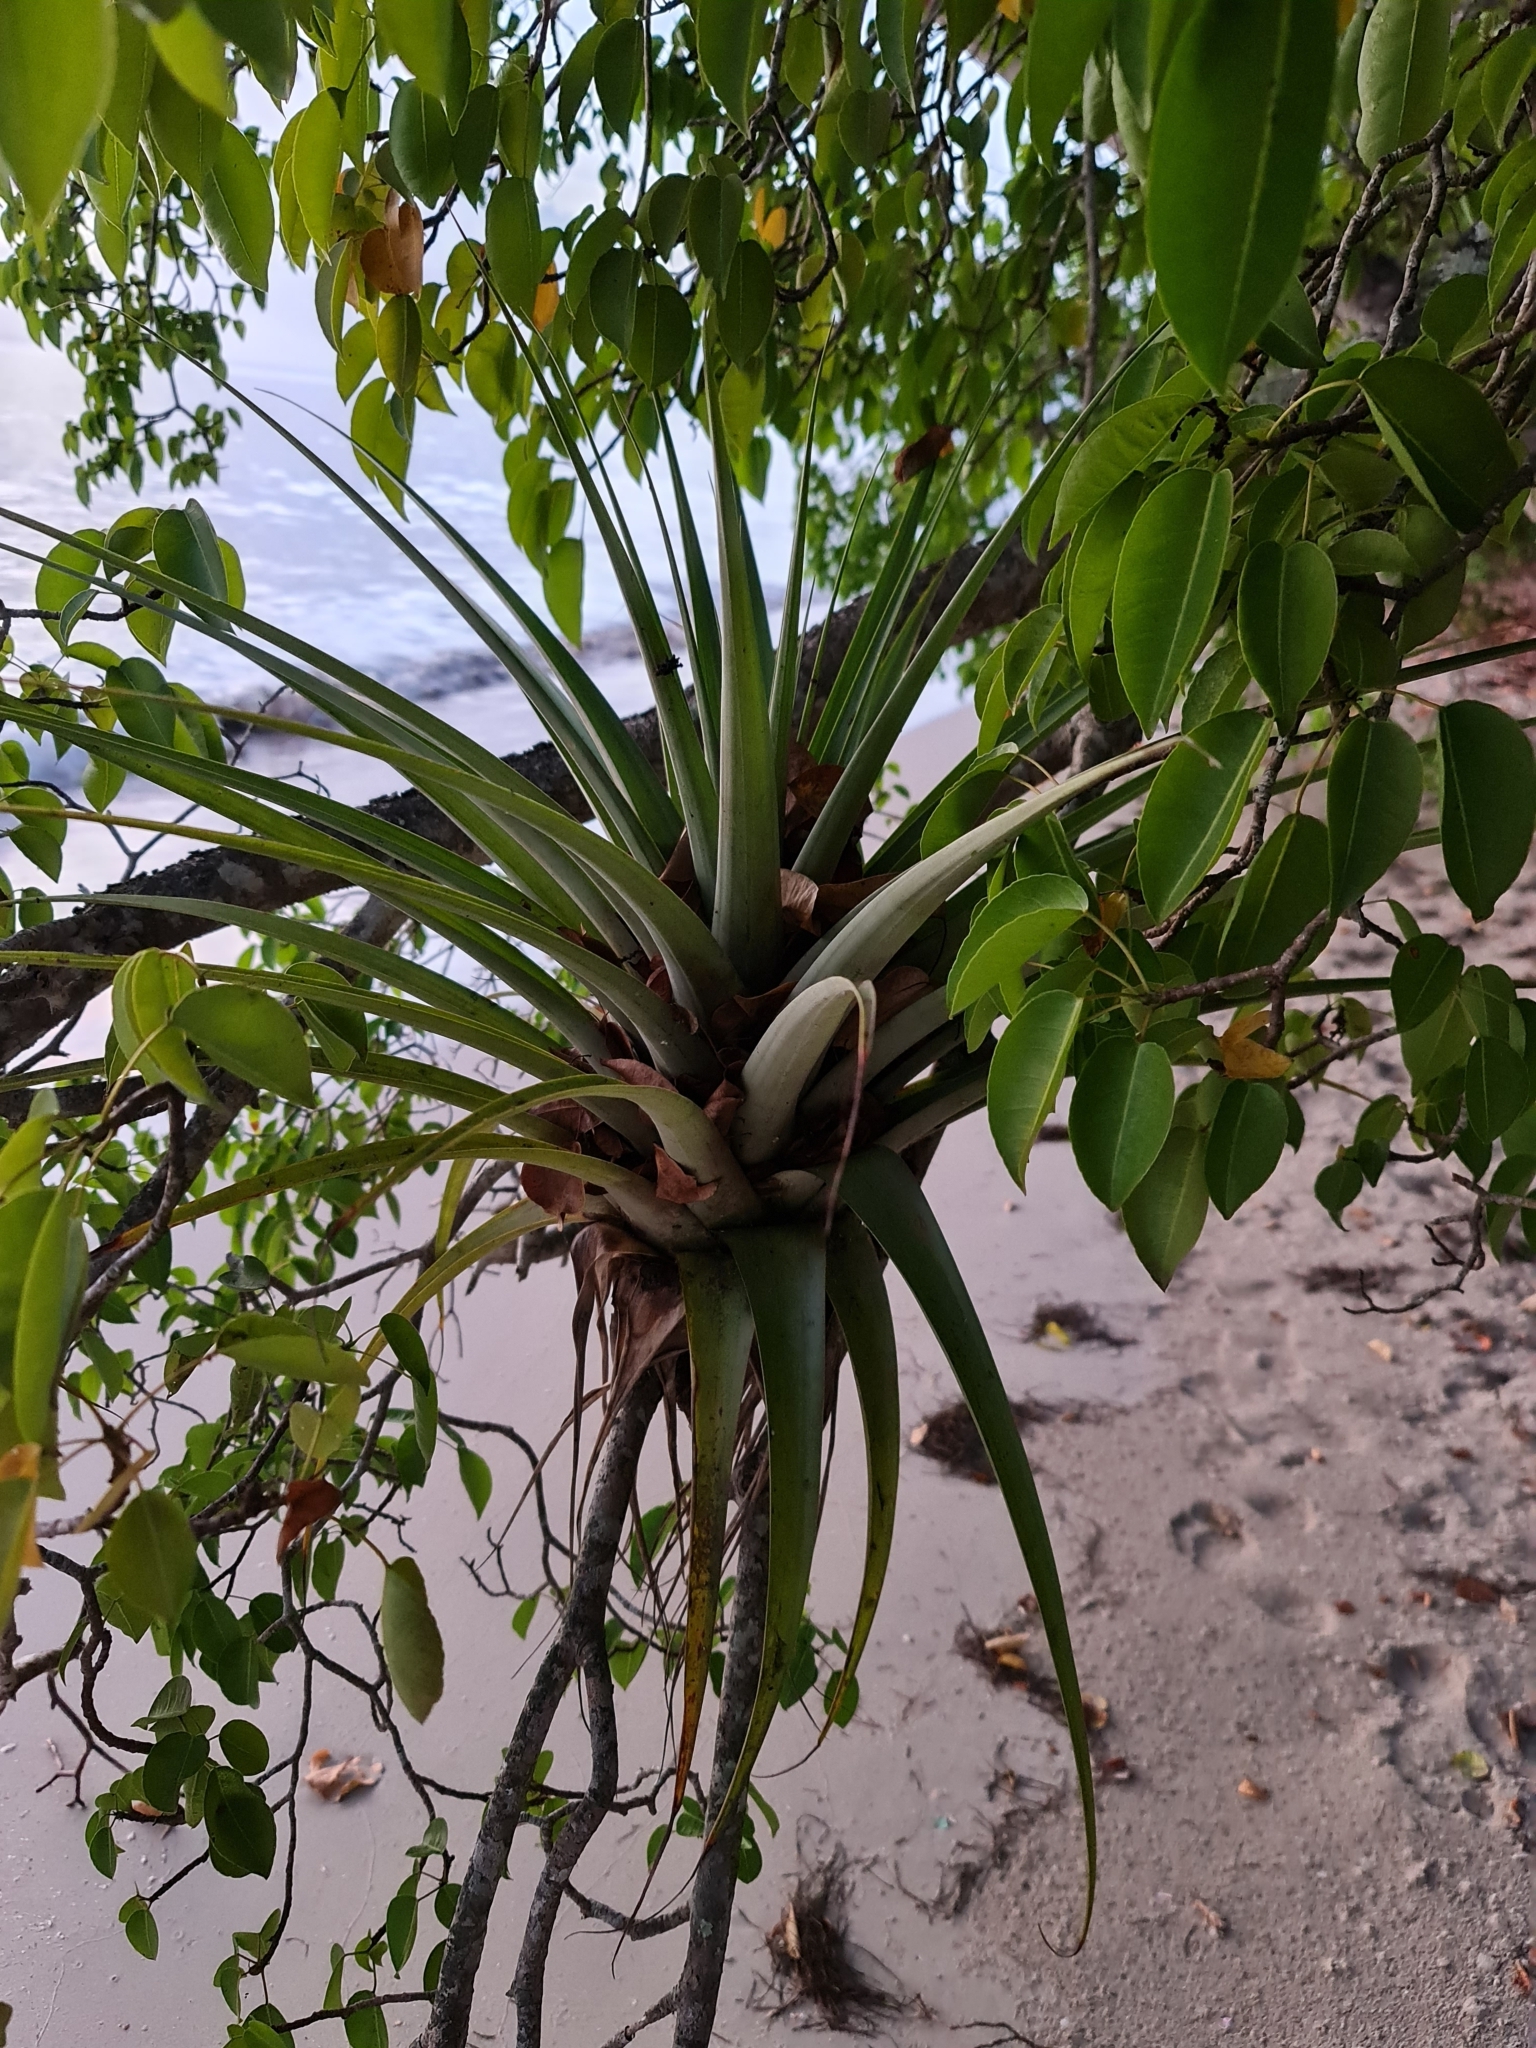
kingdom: Plantae
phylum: Tracheophyta
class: Liliopsida
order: Poales
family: Bromeliaceae
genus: Tillandsia
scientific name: Tillandsia utriculata
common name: Wild pine
